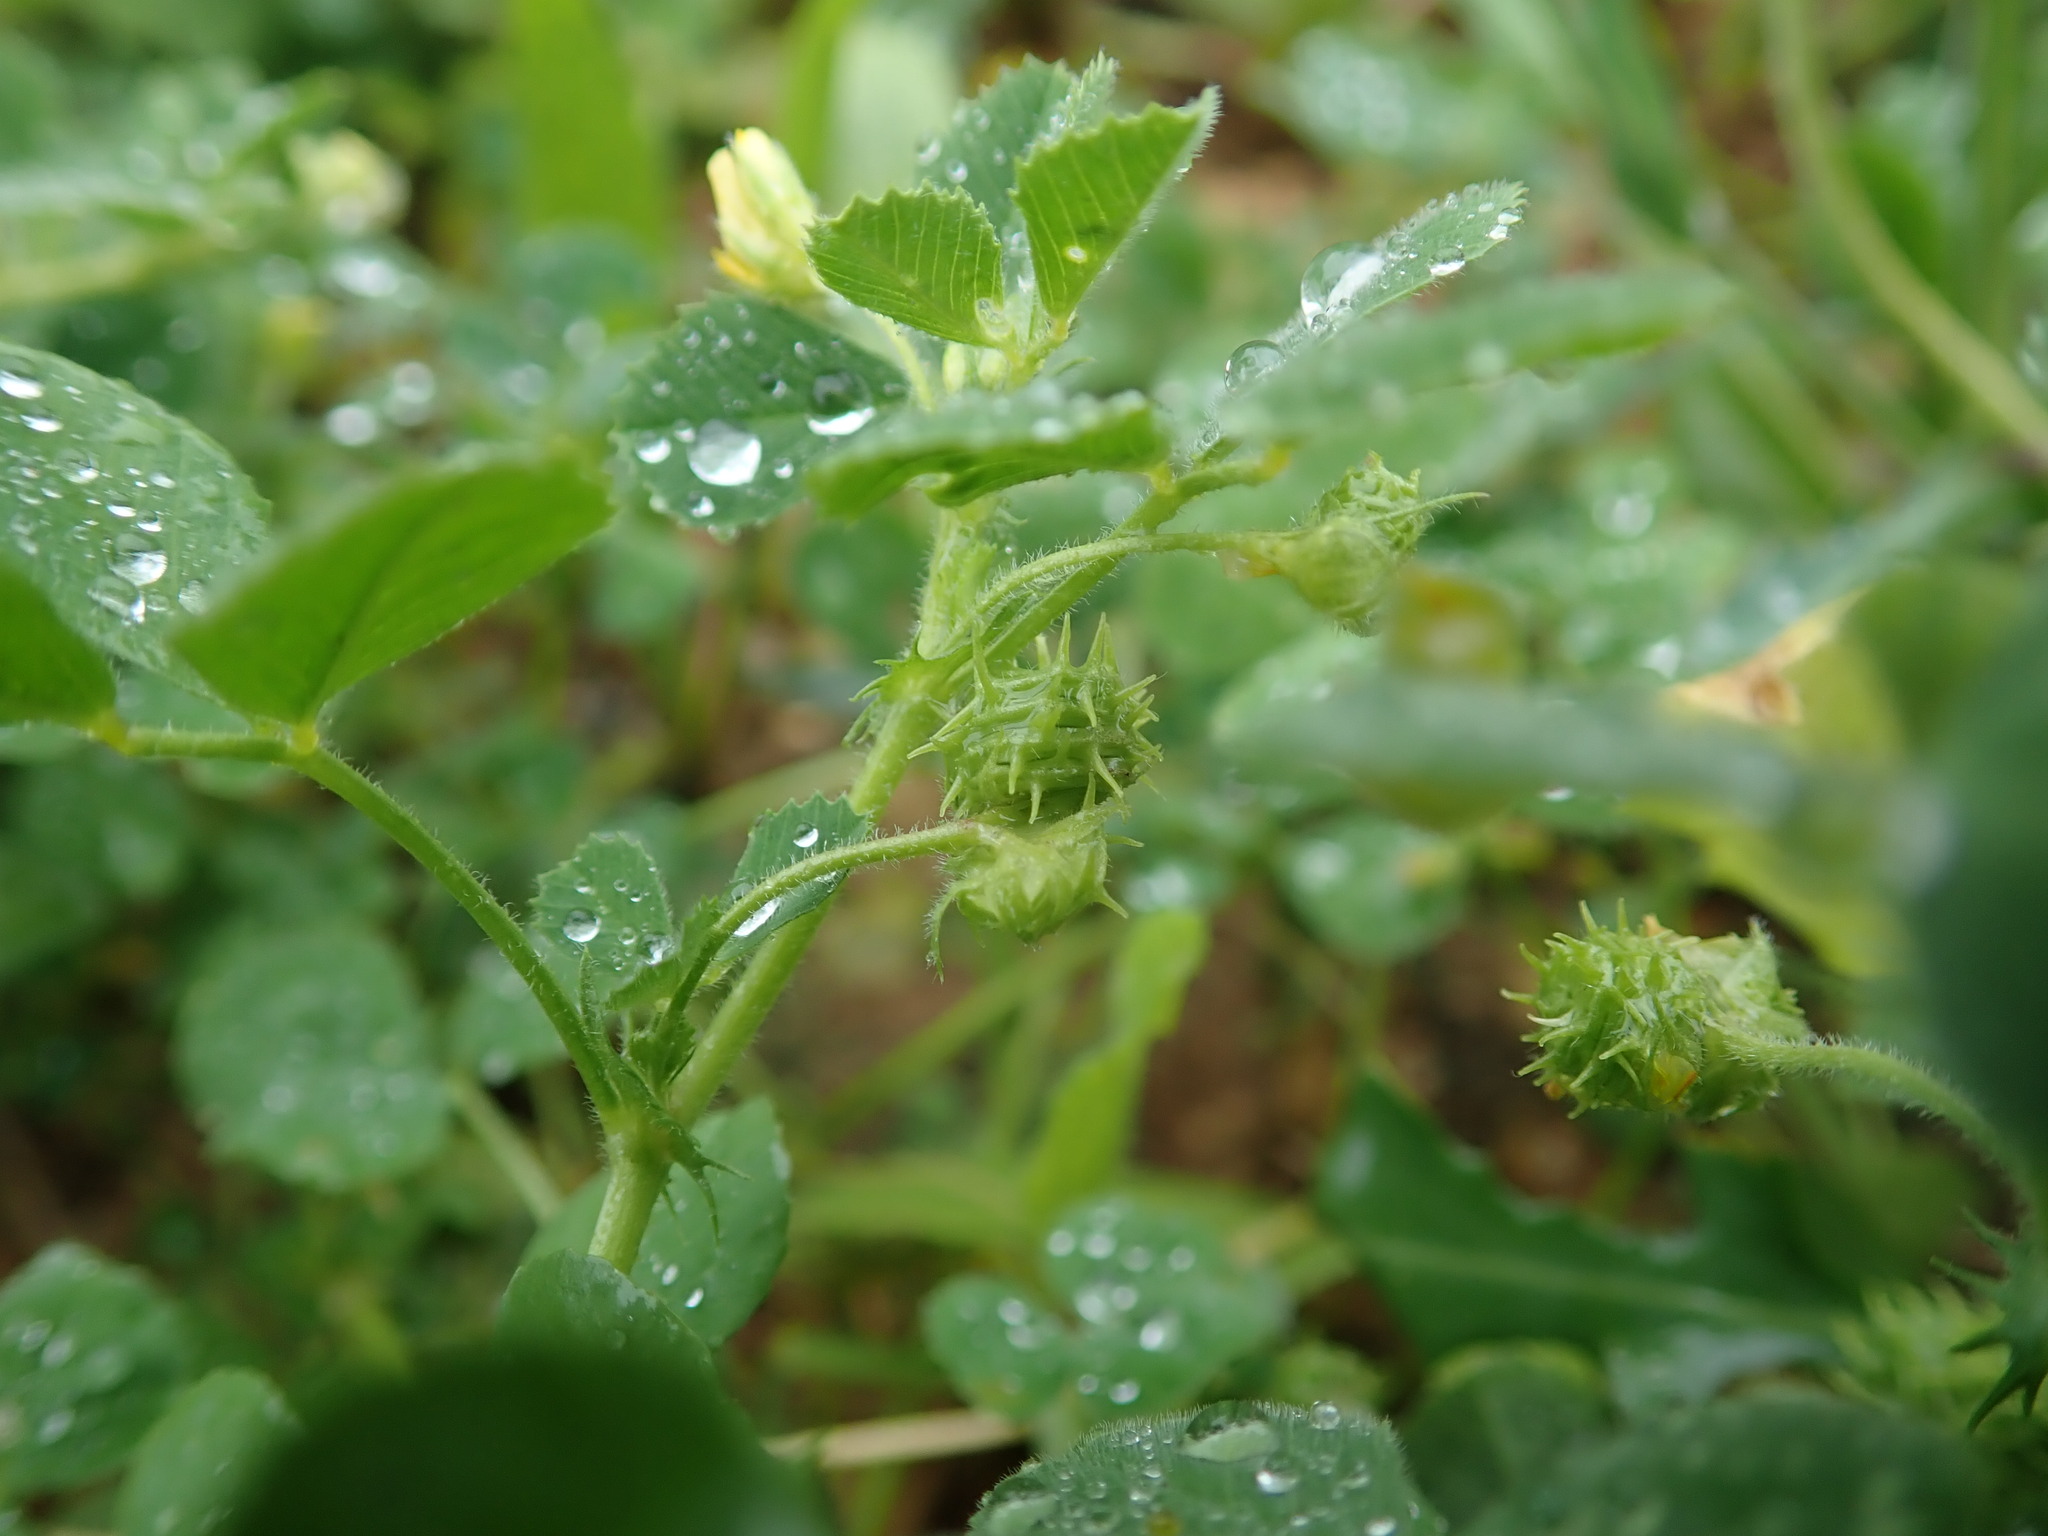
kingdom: Plantae
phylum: Tracheophyta
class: Magnoliopsida
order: Fabales
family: Fabaceae
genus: Medicago
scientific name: Medicago littoralis
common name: Shore medick
